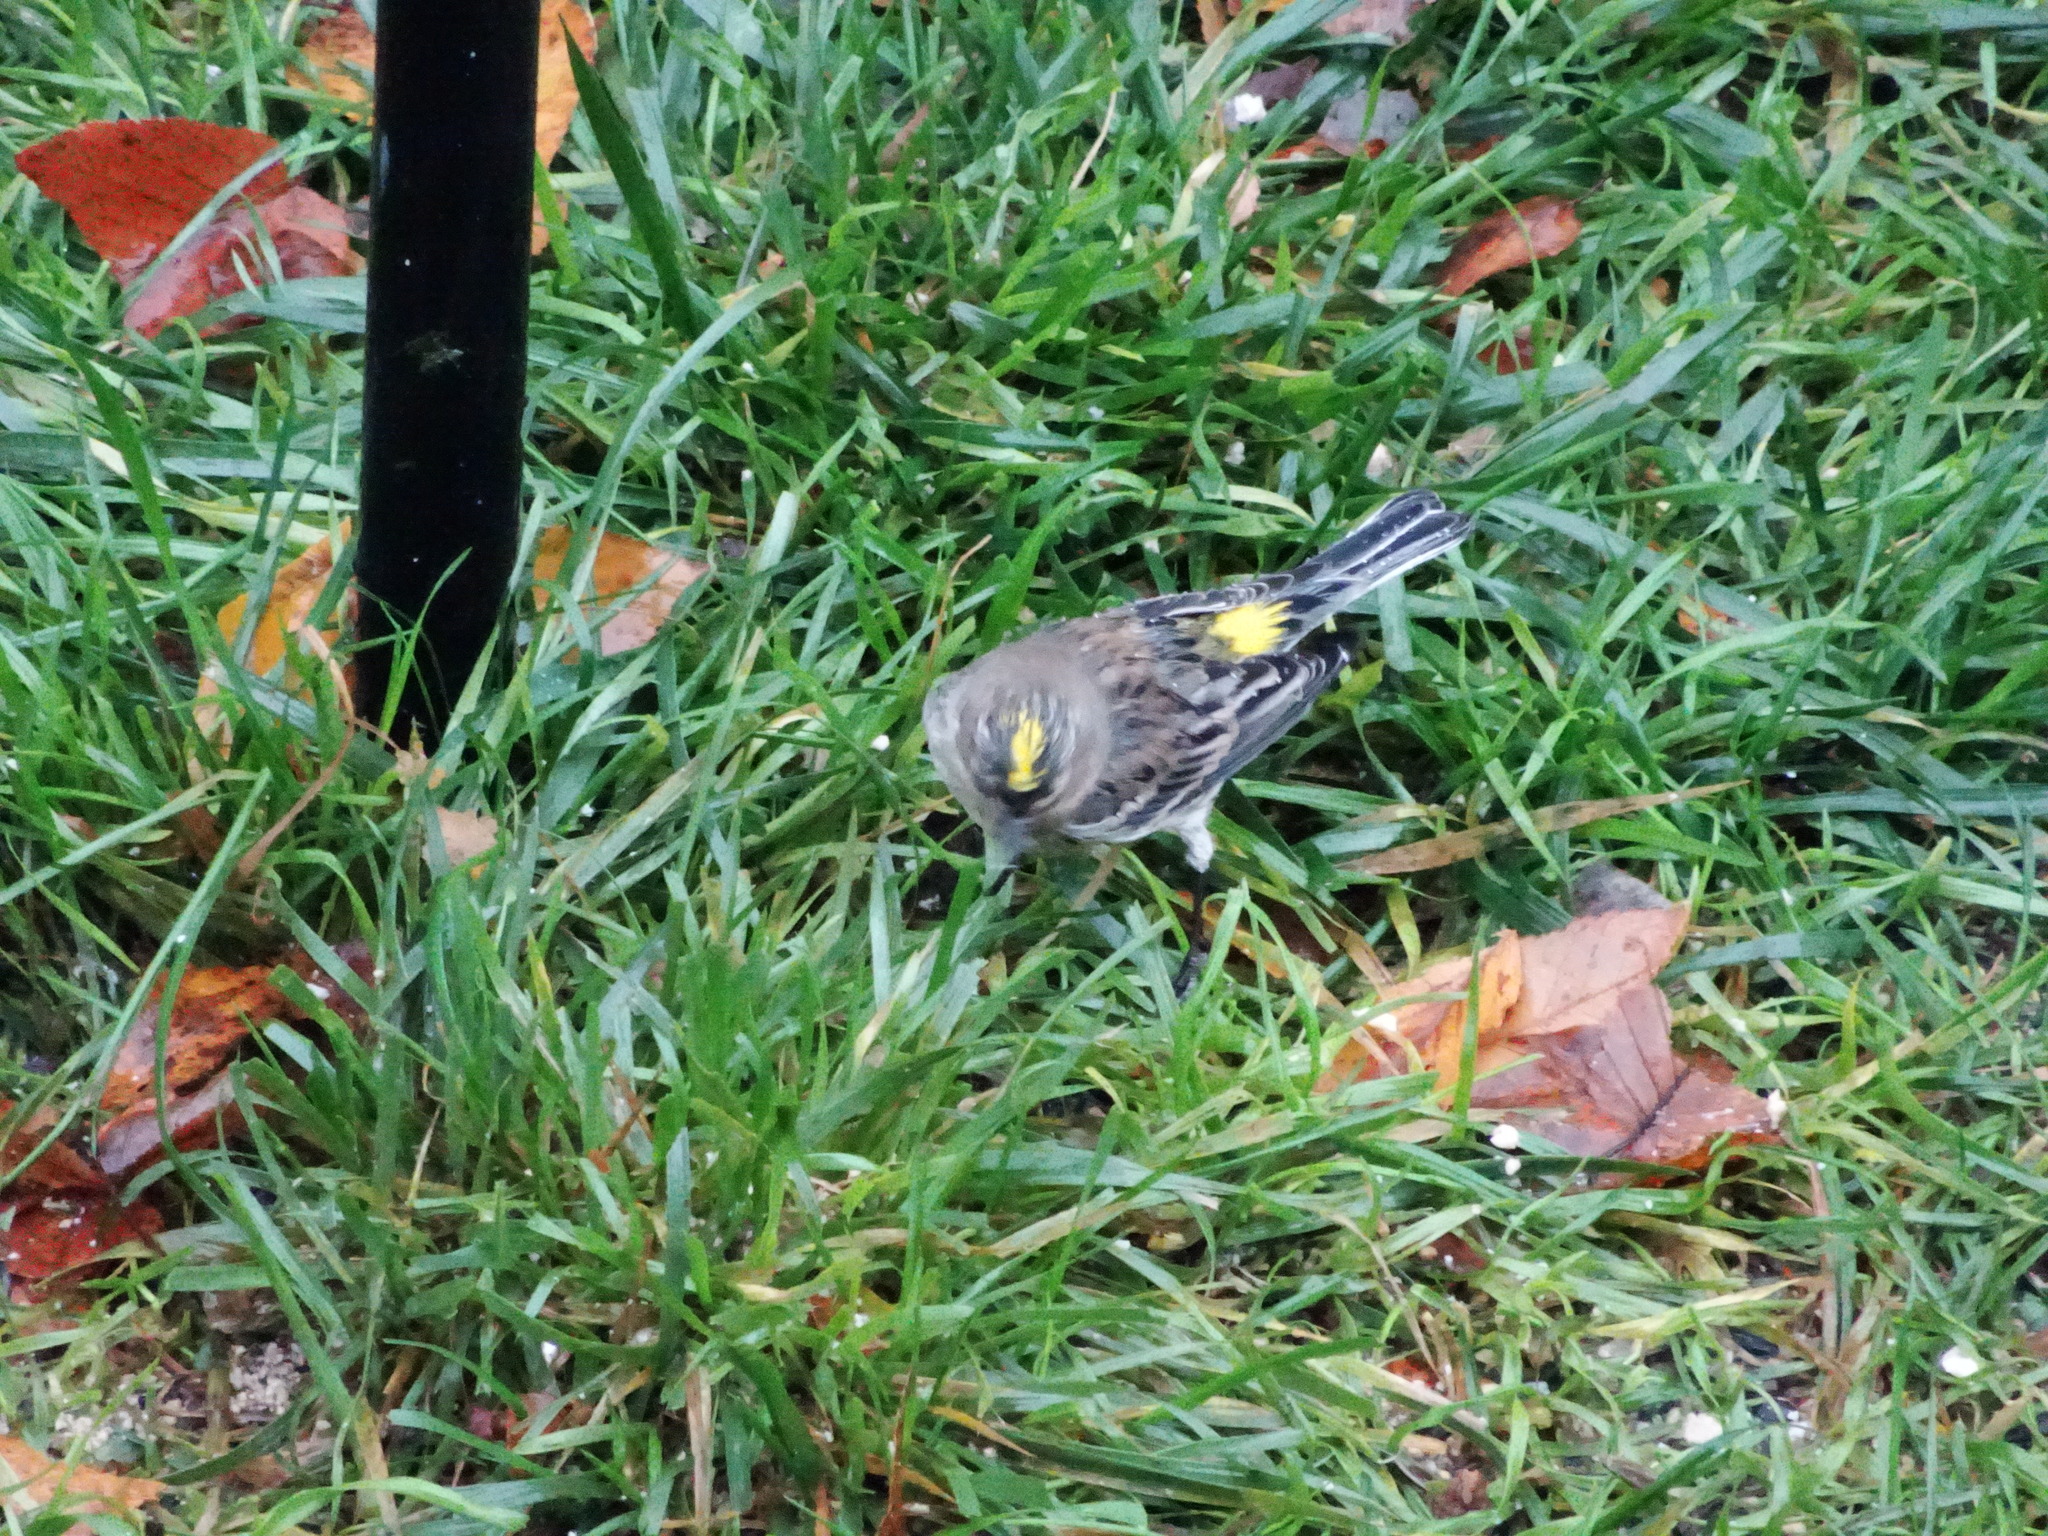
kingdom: Animalia
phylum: Chordata
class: Aves
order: Passeriformes
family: Parulidae
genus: Setophaga
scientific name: Setophaga coronata
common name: Myrtle warbler
